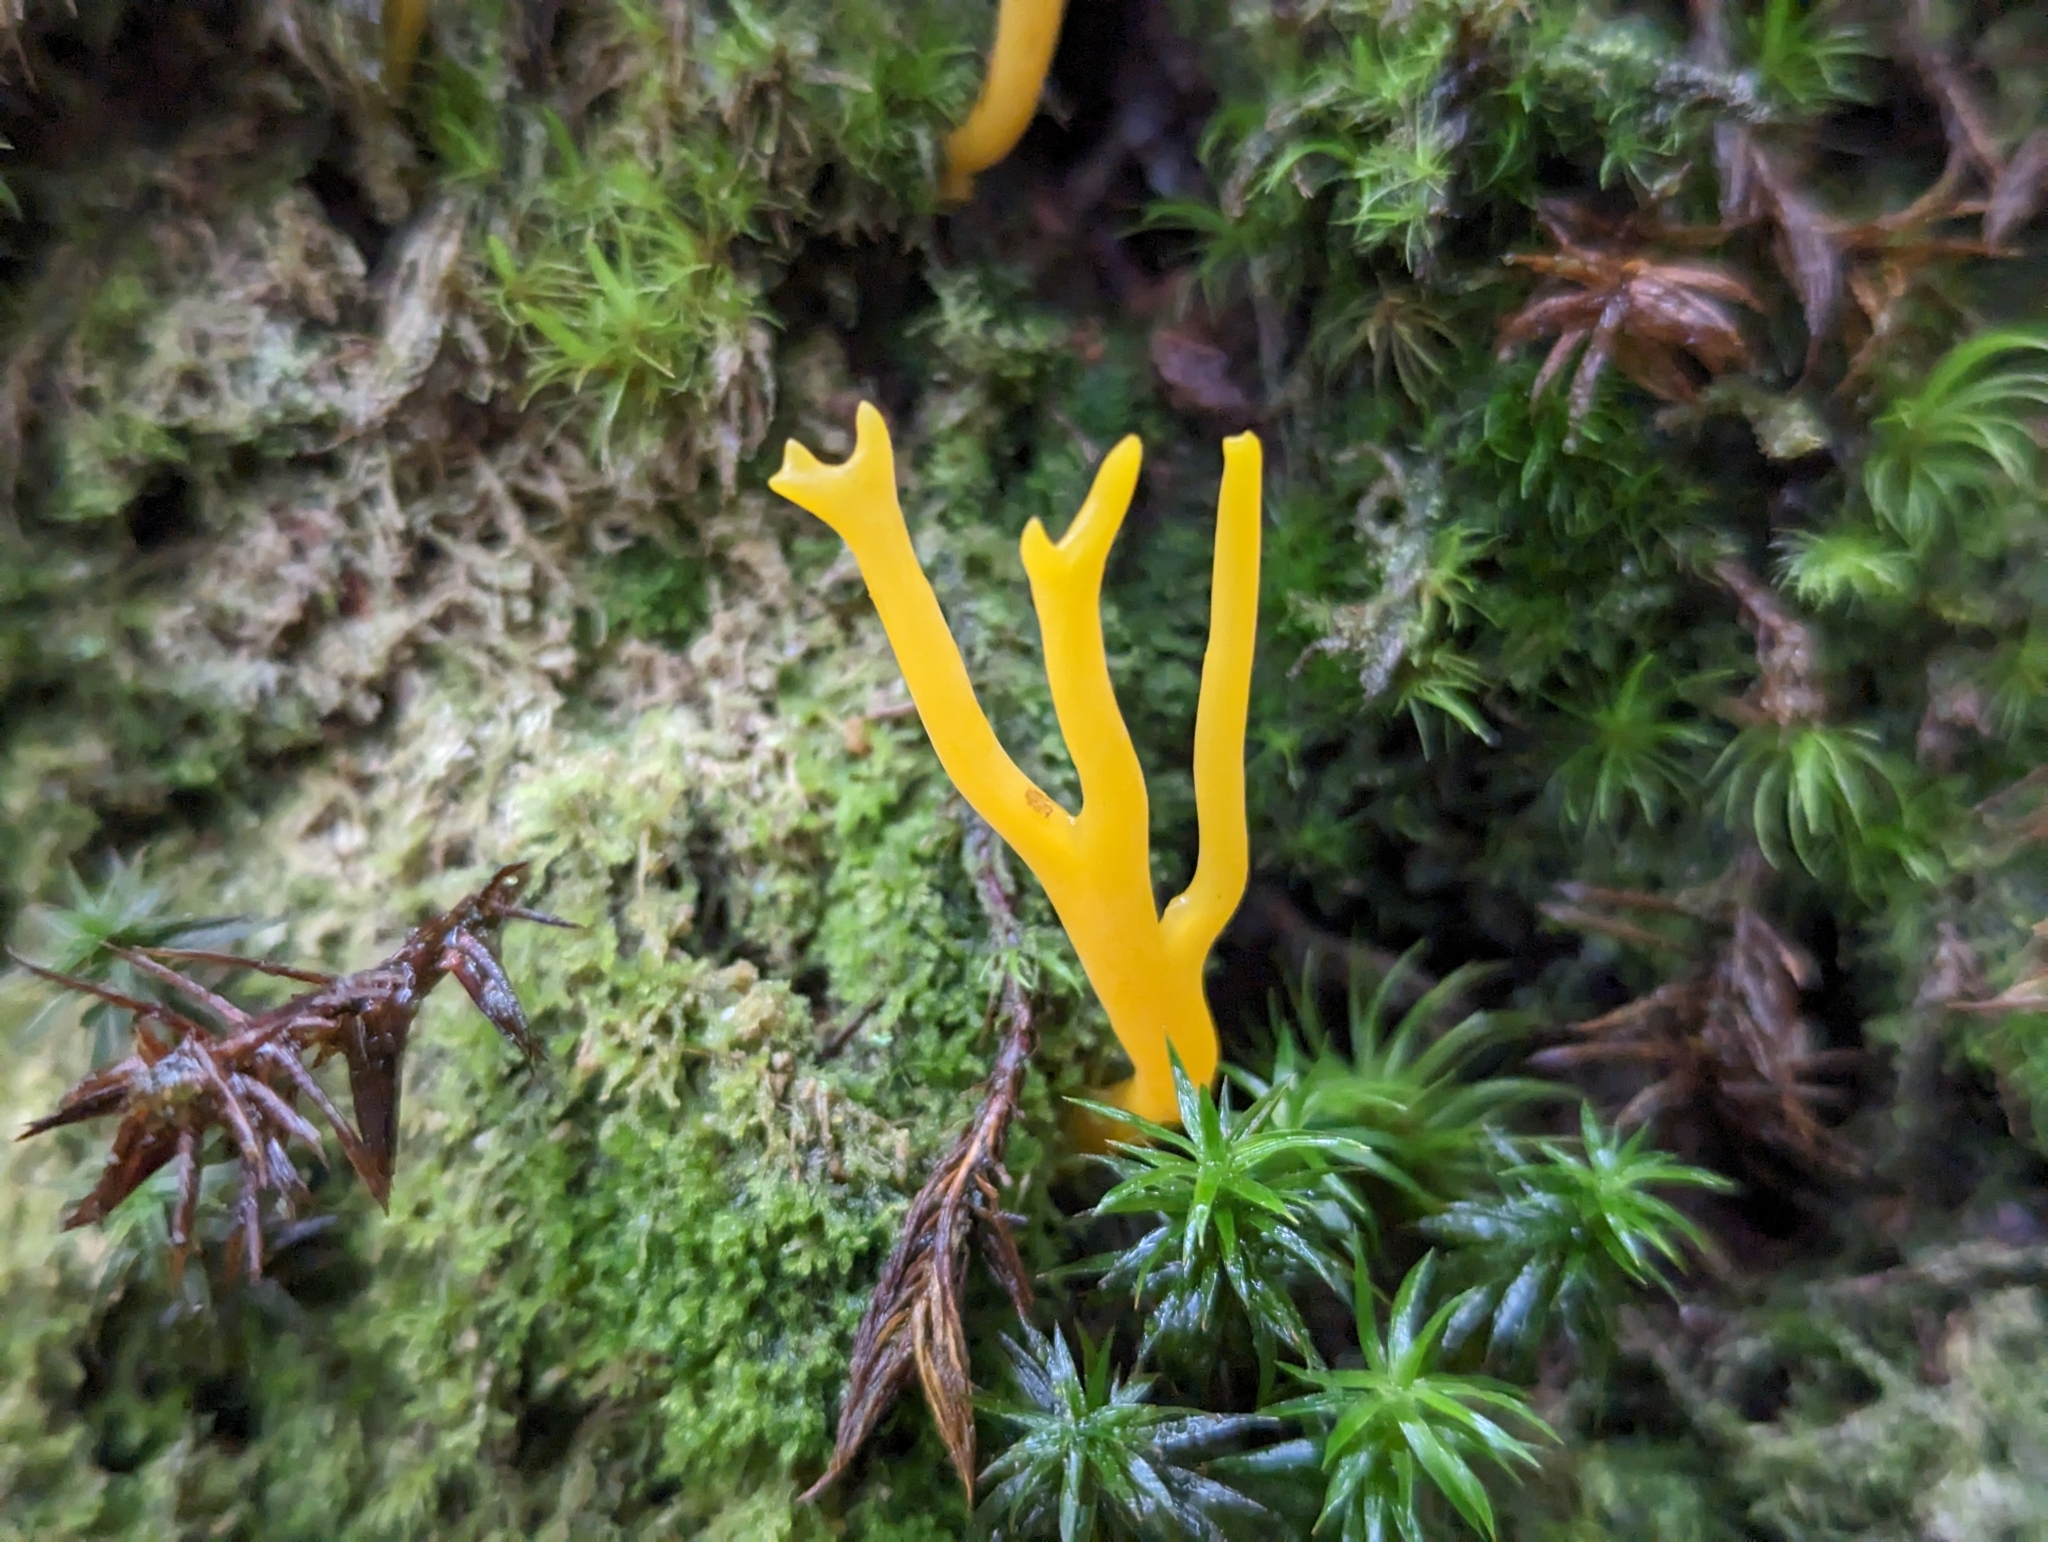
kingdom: Fungi
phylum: Basidiomycota
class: Dacrymycetes
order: Dacrymycetales
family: Dacrymycetaceae
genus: Calocera
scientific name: Calocera viscosa
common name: Yellow stagshorn
